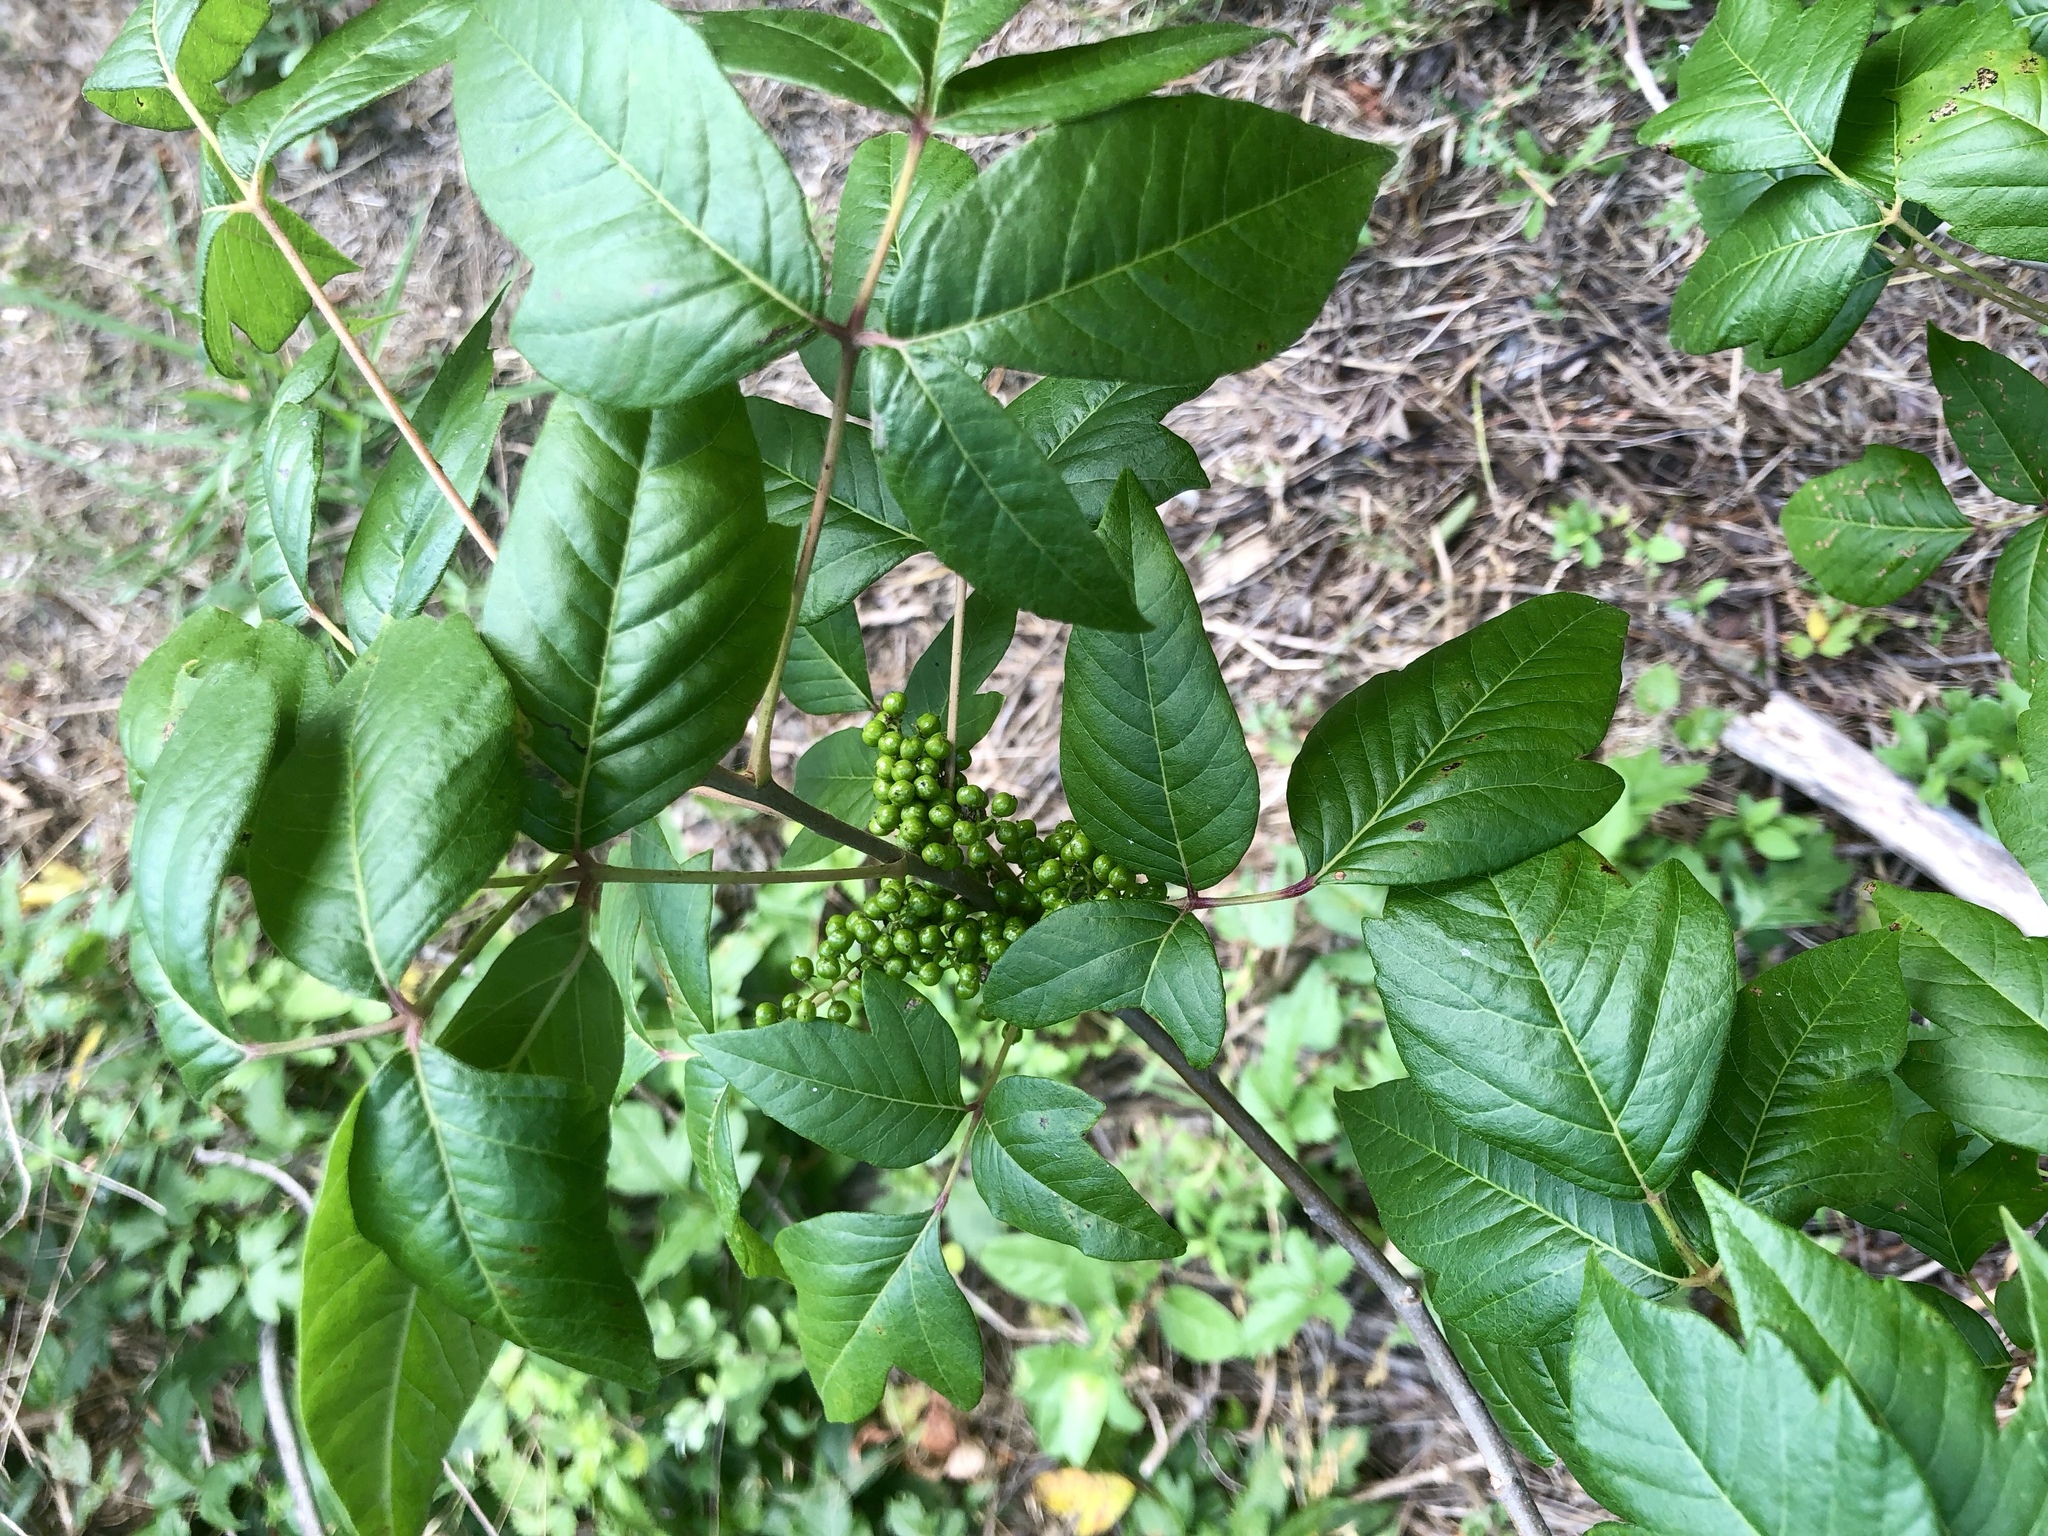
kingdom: Plantae
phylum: Tracheophyta
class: Magnoliopsida
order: Sapindales
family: Anacardiaceae
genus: Toxicodendron
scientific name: Toxicodendron radicans
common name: Poison ivy
